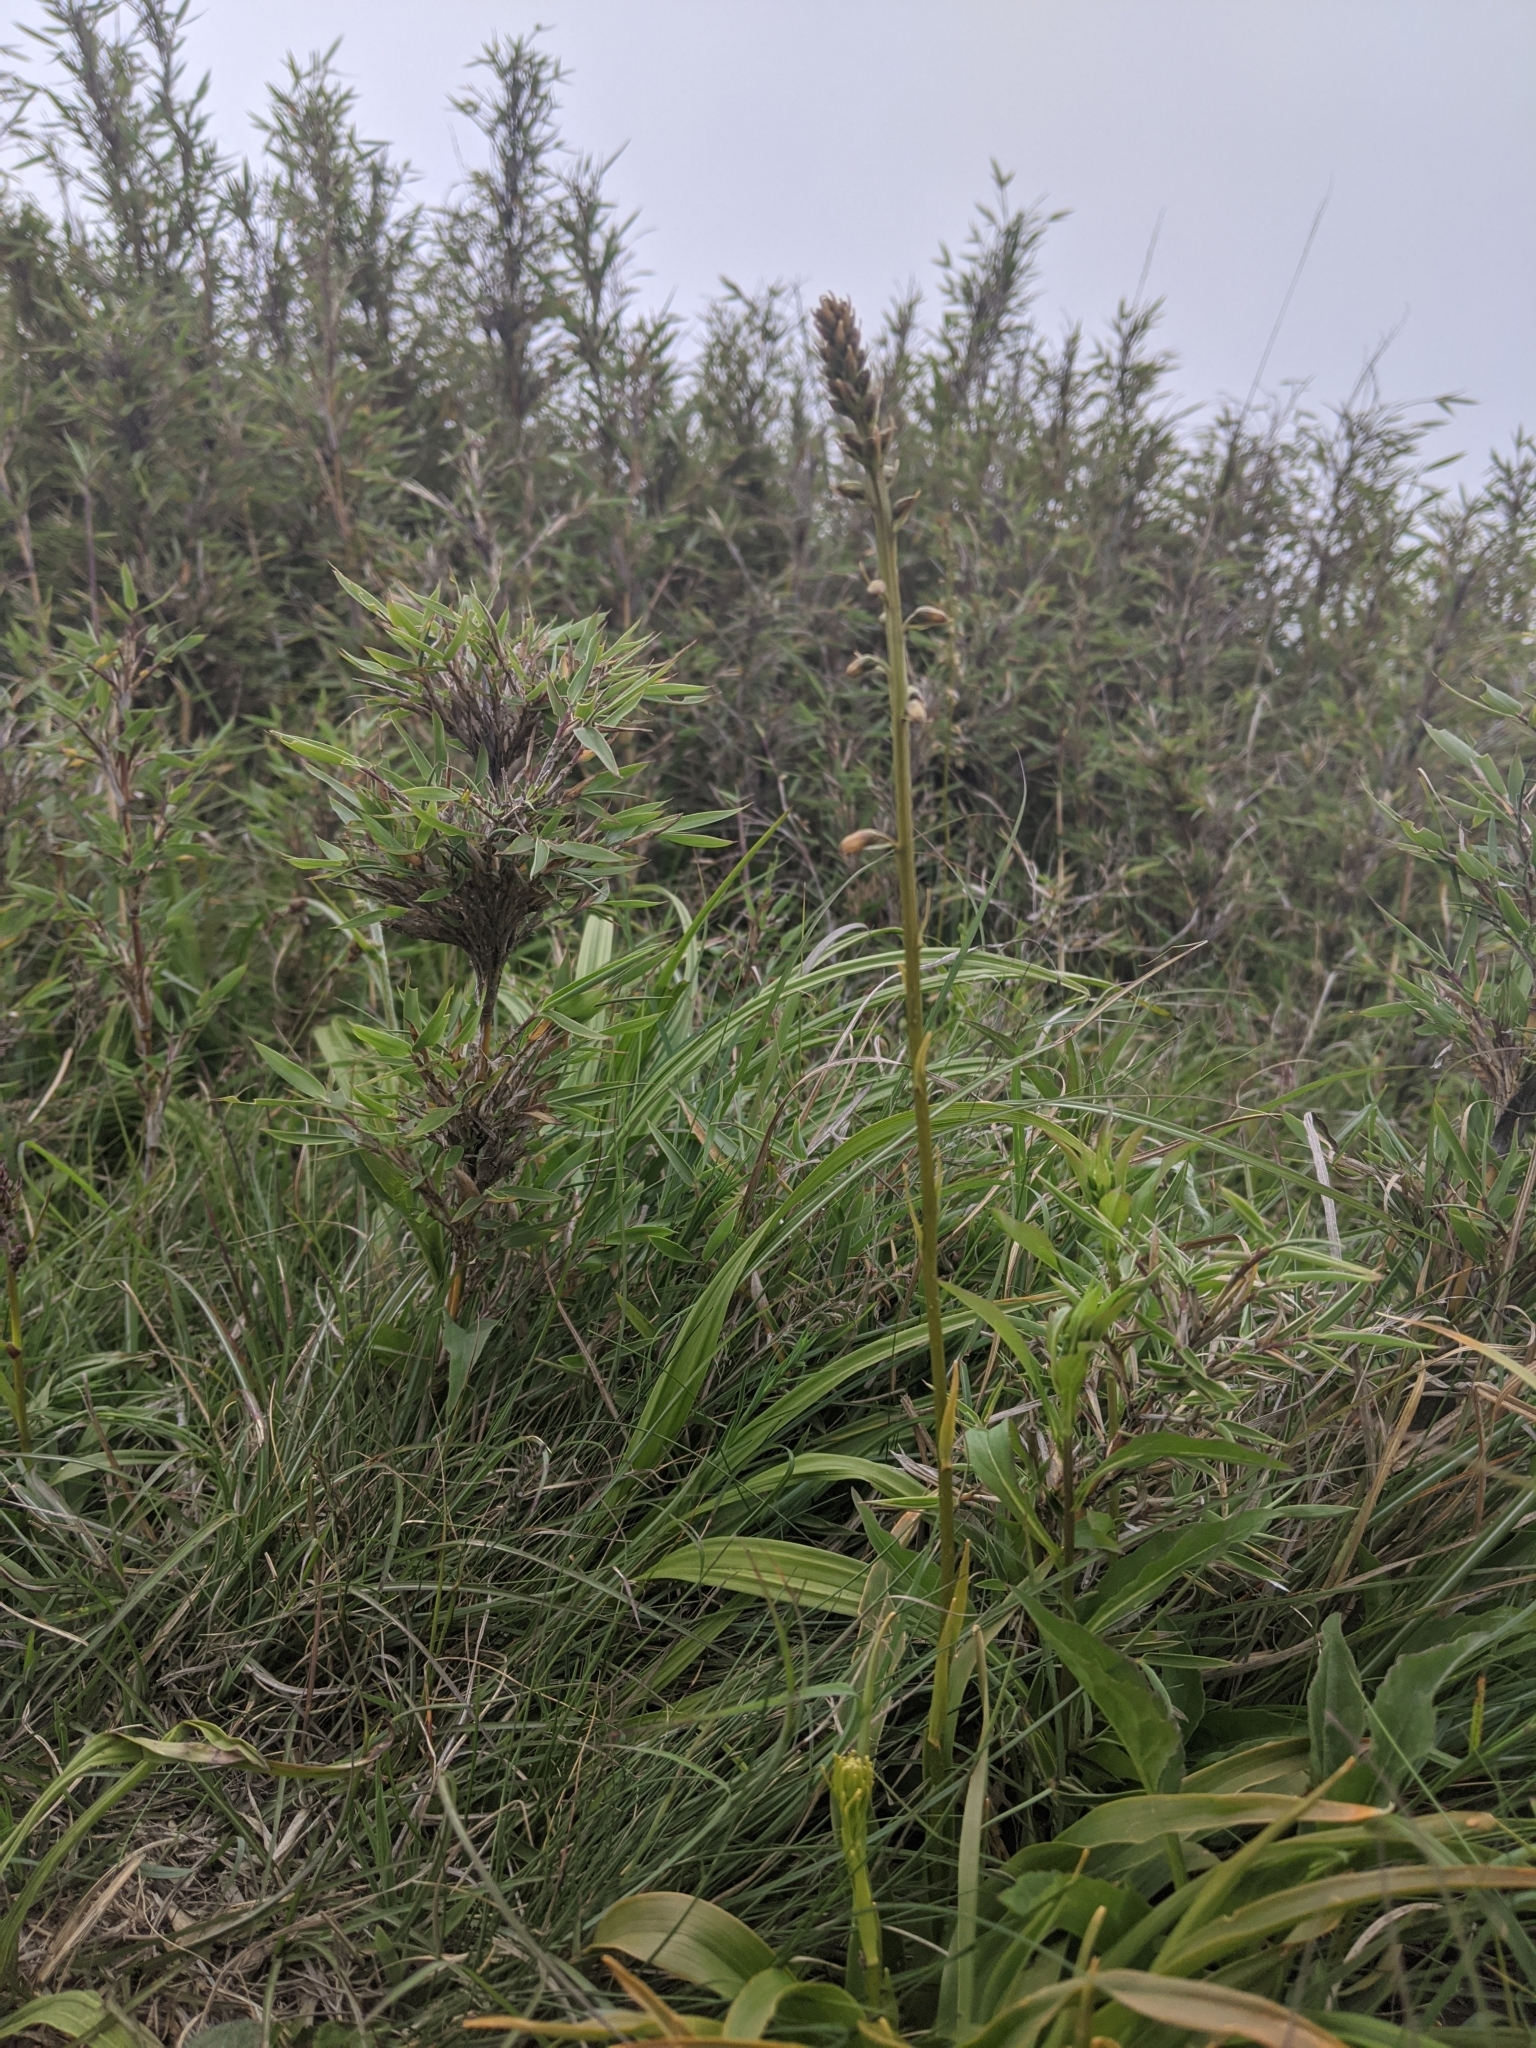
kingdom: Plantae
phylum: Tracheophyta
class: Liliopsida
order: Dioscoreales
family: Nartheciaceae
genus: Aletris
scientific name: Aletris glabra
